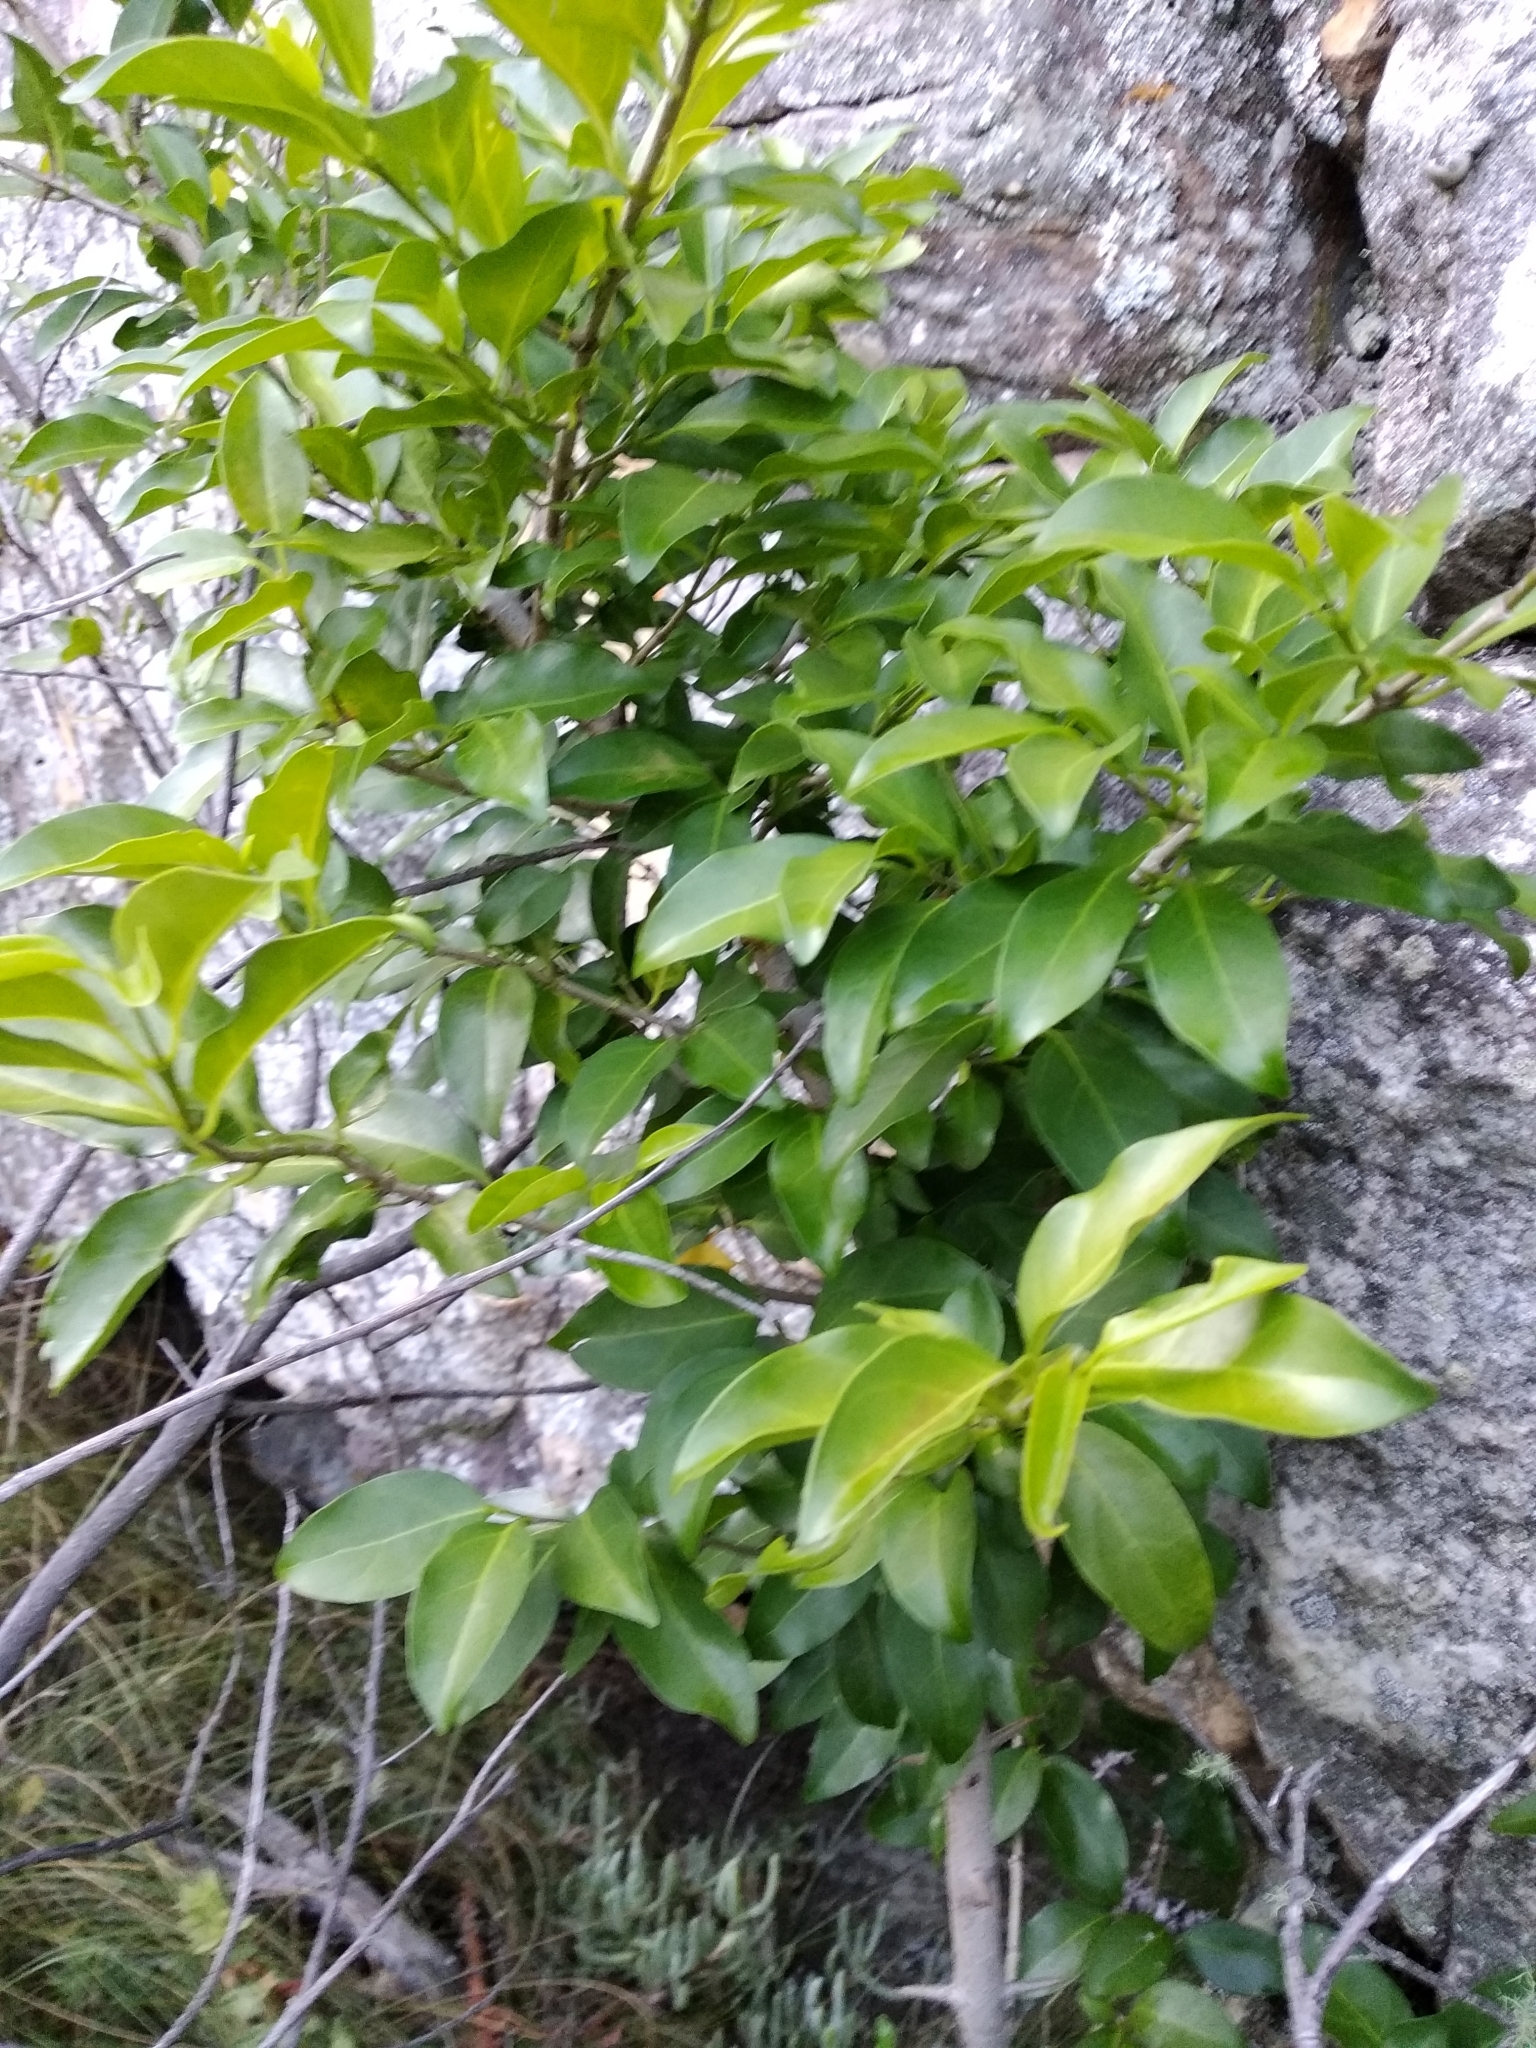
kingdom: Plantae
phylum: Tracheophyta
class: Magnoliopsida
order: Gentianales
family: Rubiaceae
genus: Canthium
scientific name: Canthium inerme
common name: Unarmed turkey-berry
